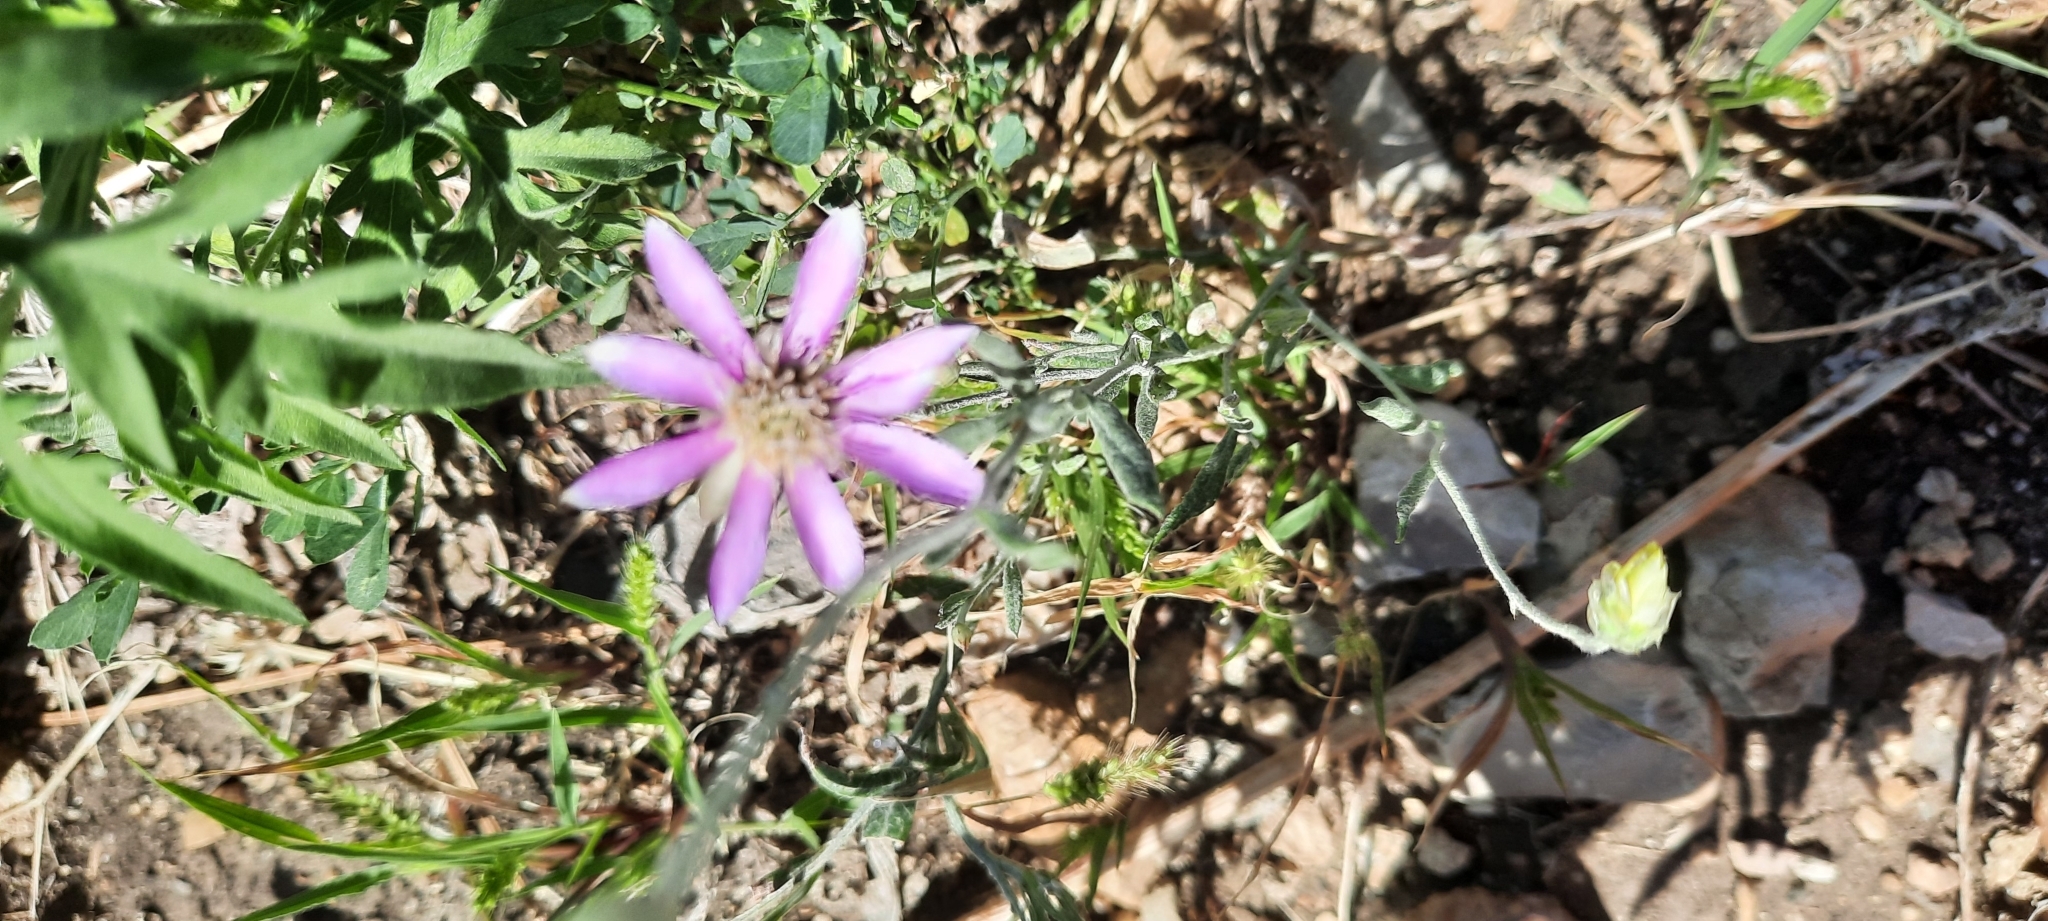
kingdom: Plantae
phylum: Tracheophyta
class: Magnoliopsida
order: Asterales
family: Asteraceae
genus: Xeranthemum
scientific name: Xeranthemum annuum
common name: Immortelle
